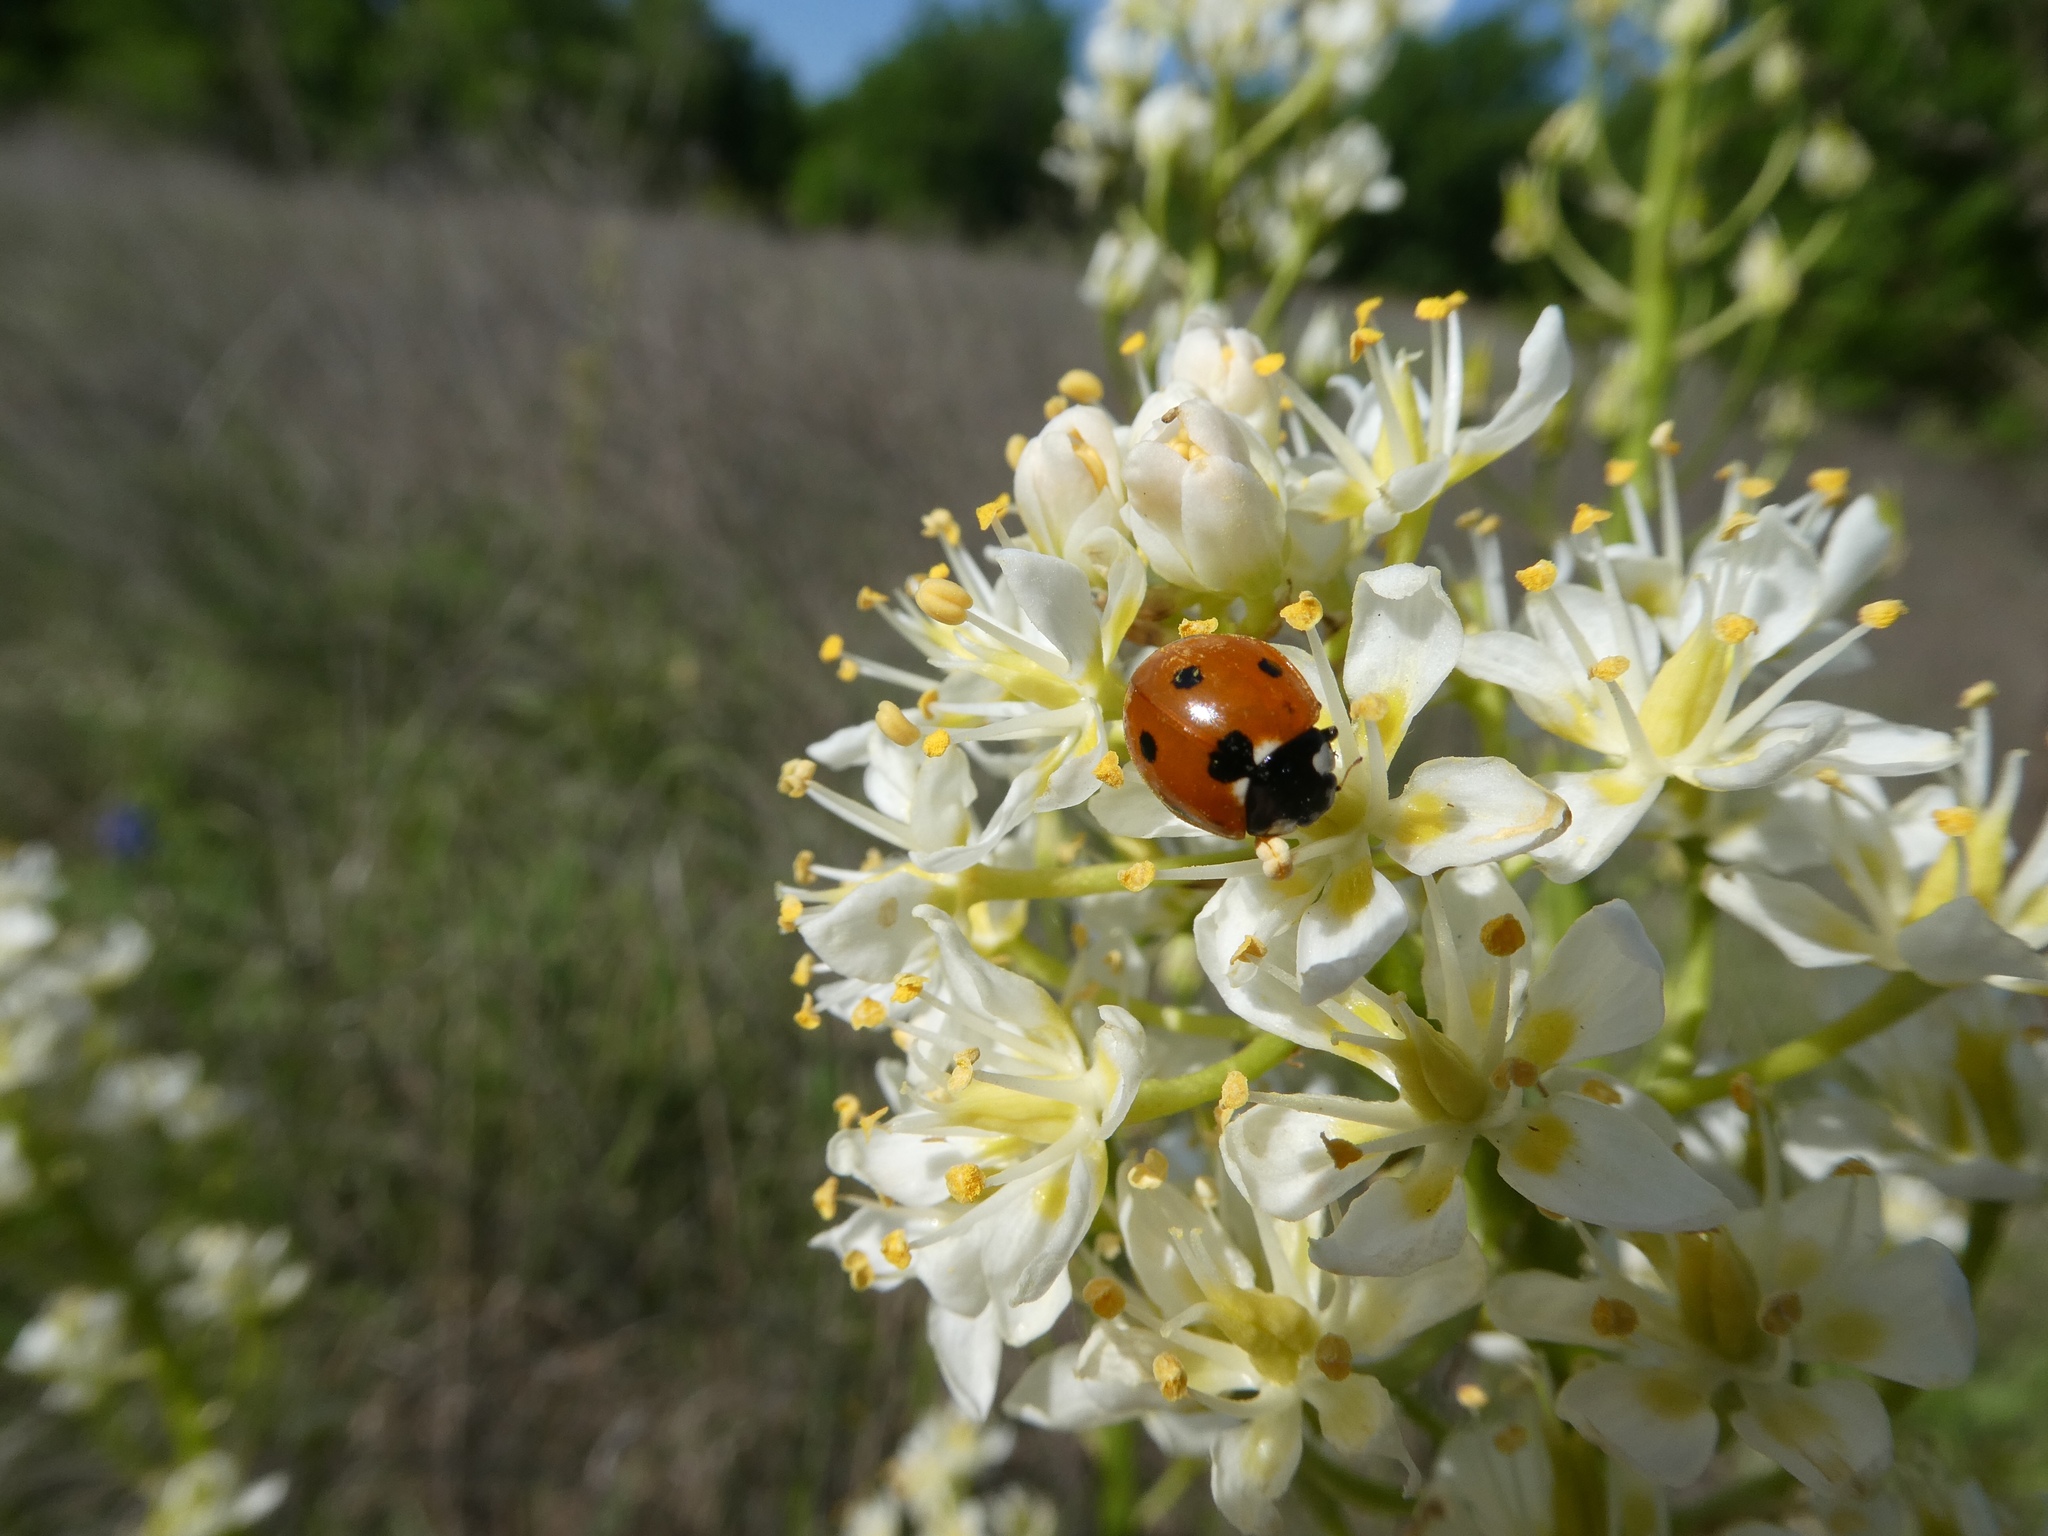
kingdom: Animalia
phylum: Arthropoda
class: Insecta
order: Coleoptera
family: Coccinellidae
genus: Coccinella
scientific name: Coccinella septempunctata
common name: Sevenspotted lady beetle
